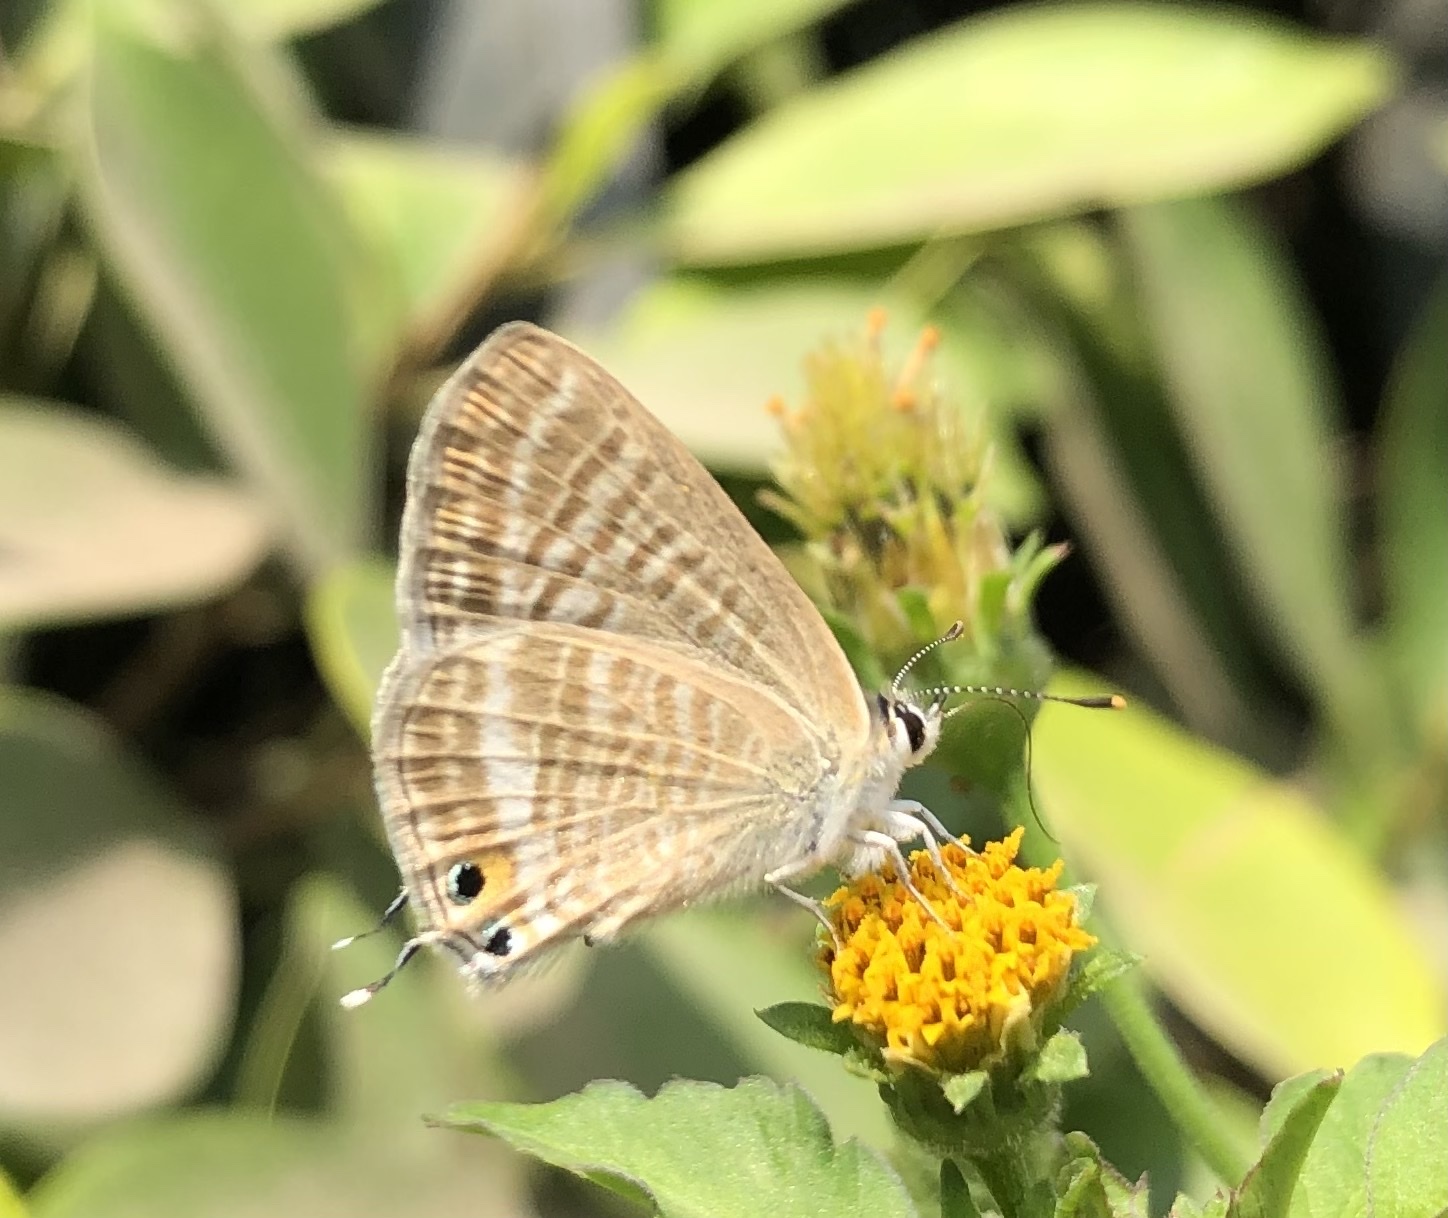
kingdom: Animalia
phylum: Arthropoda
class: Insecta
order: Lepidoptera
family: Lycaenidae
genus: Lampides
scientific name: Lampides boeticus
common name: Long-tailed blue
